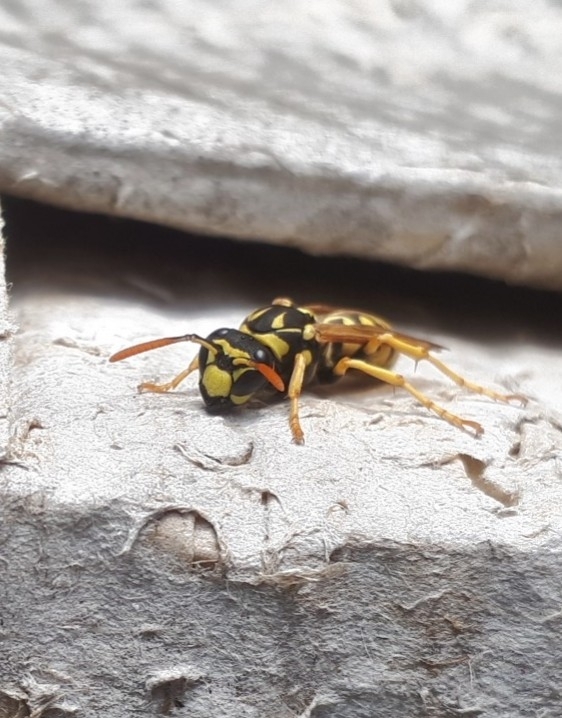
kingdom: Animalia
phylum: Arthropoda
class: Insecta
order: Hymenoptera
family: Eumenidae
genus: Polistes
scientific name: Polistes dominula
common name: Paper wasp
